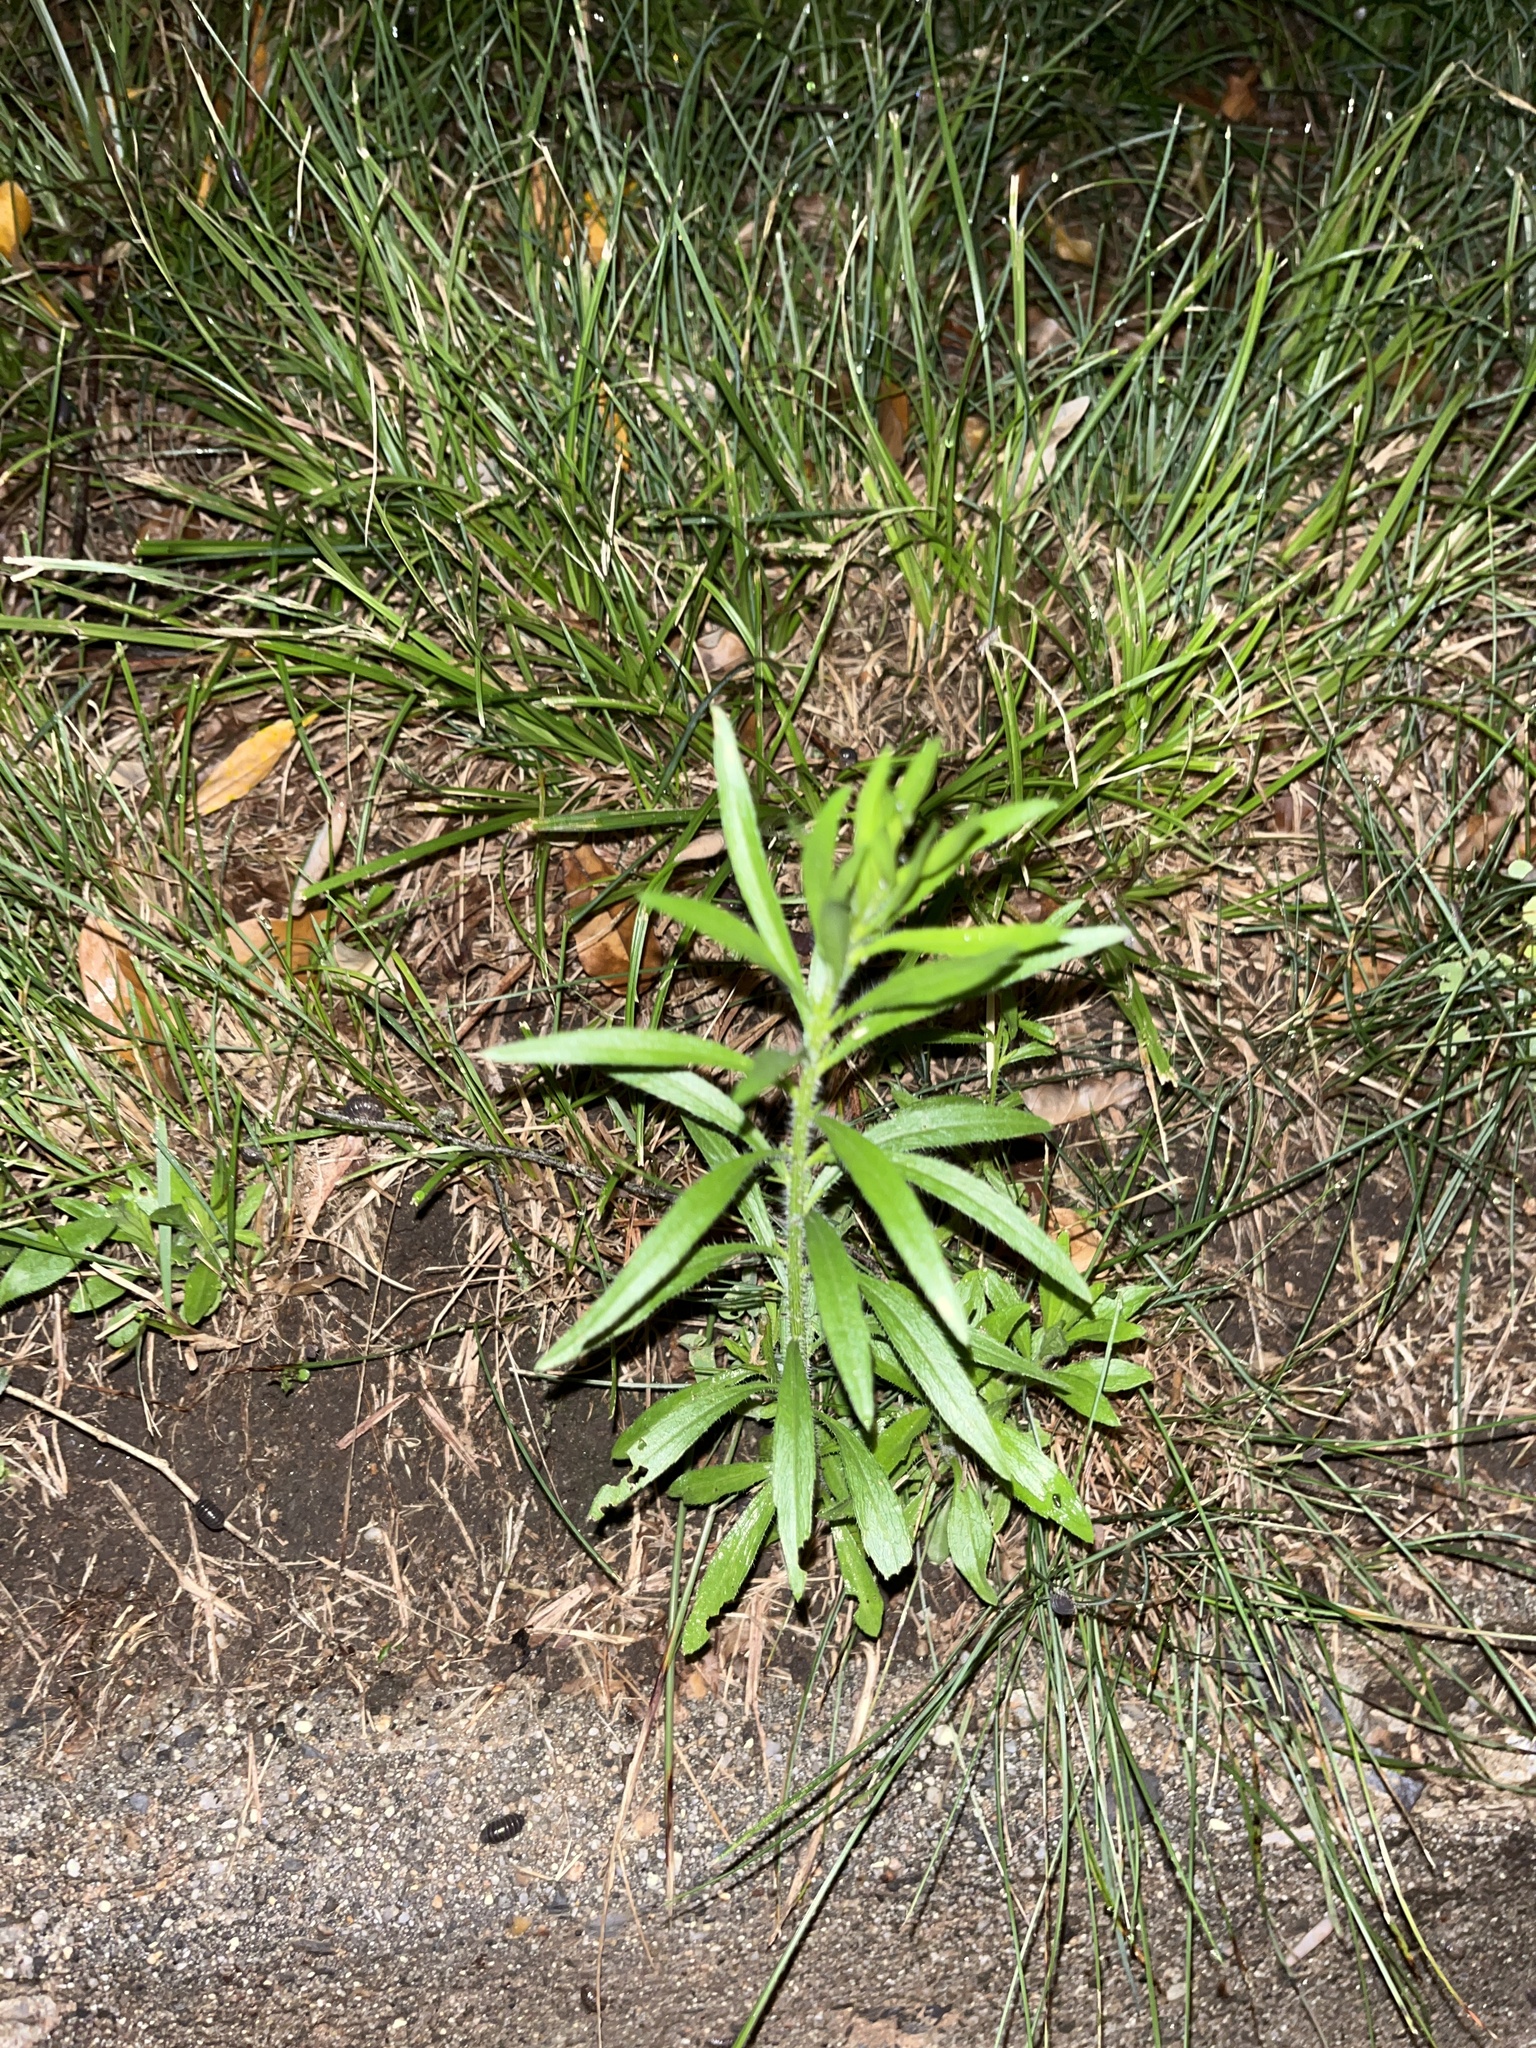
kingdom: Plantae
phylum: Tracheophyta
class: Magnoliopsida
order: Asterales
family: Asteraceae
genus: Erigeron
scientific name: Erigeron canadensis
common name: Canadian fleabane
